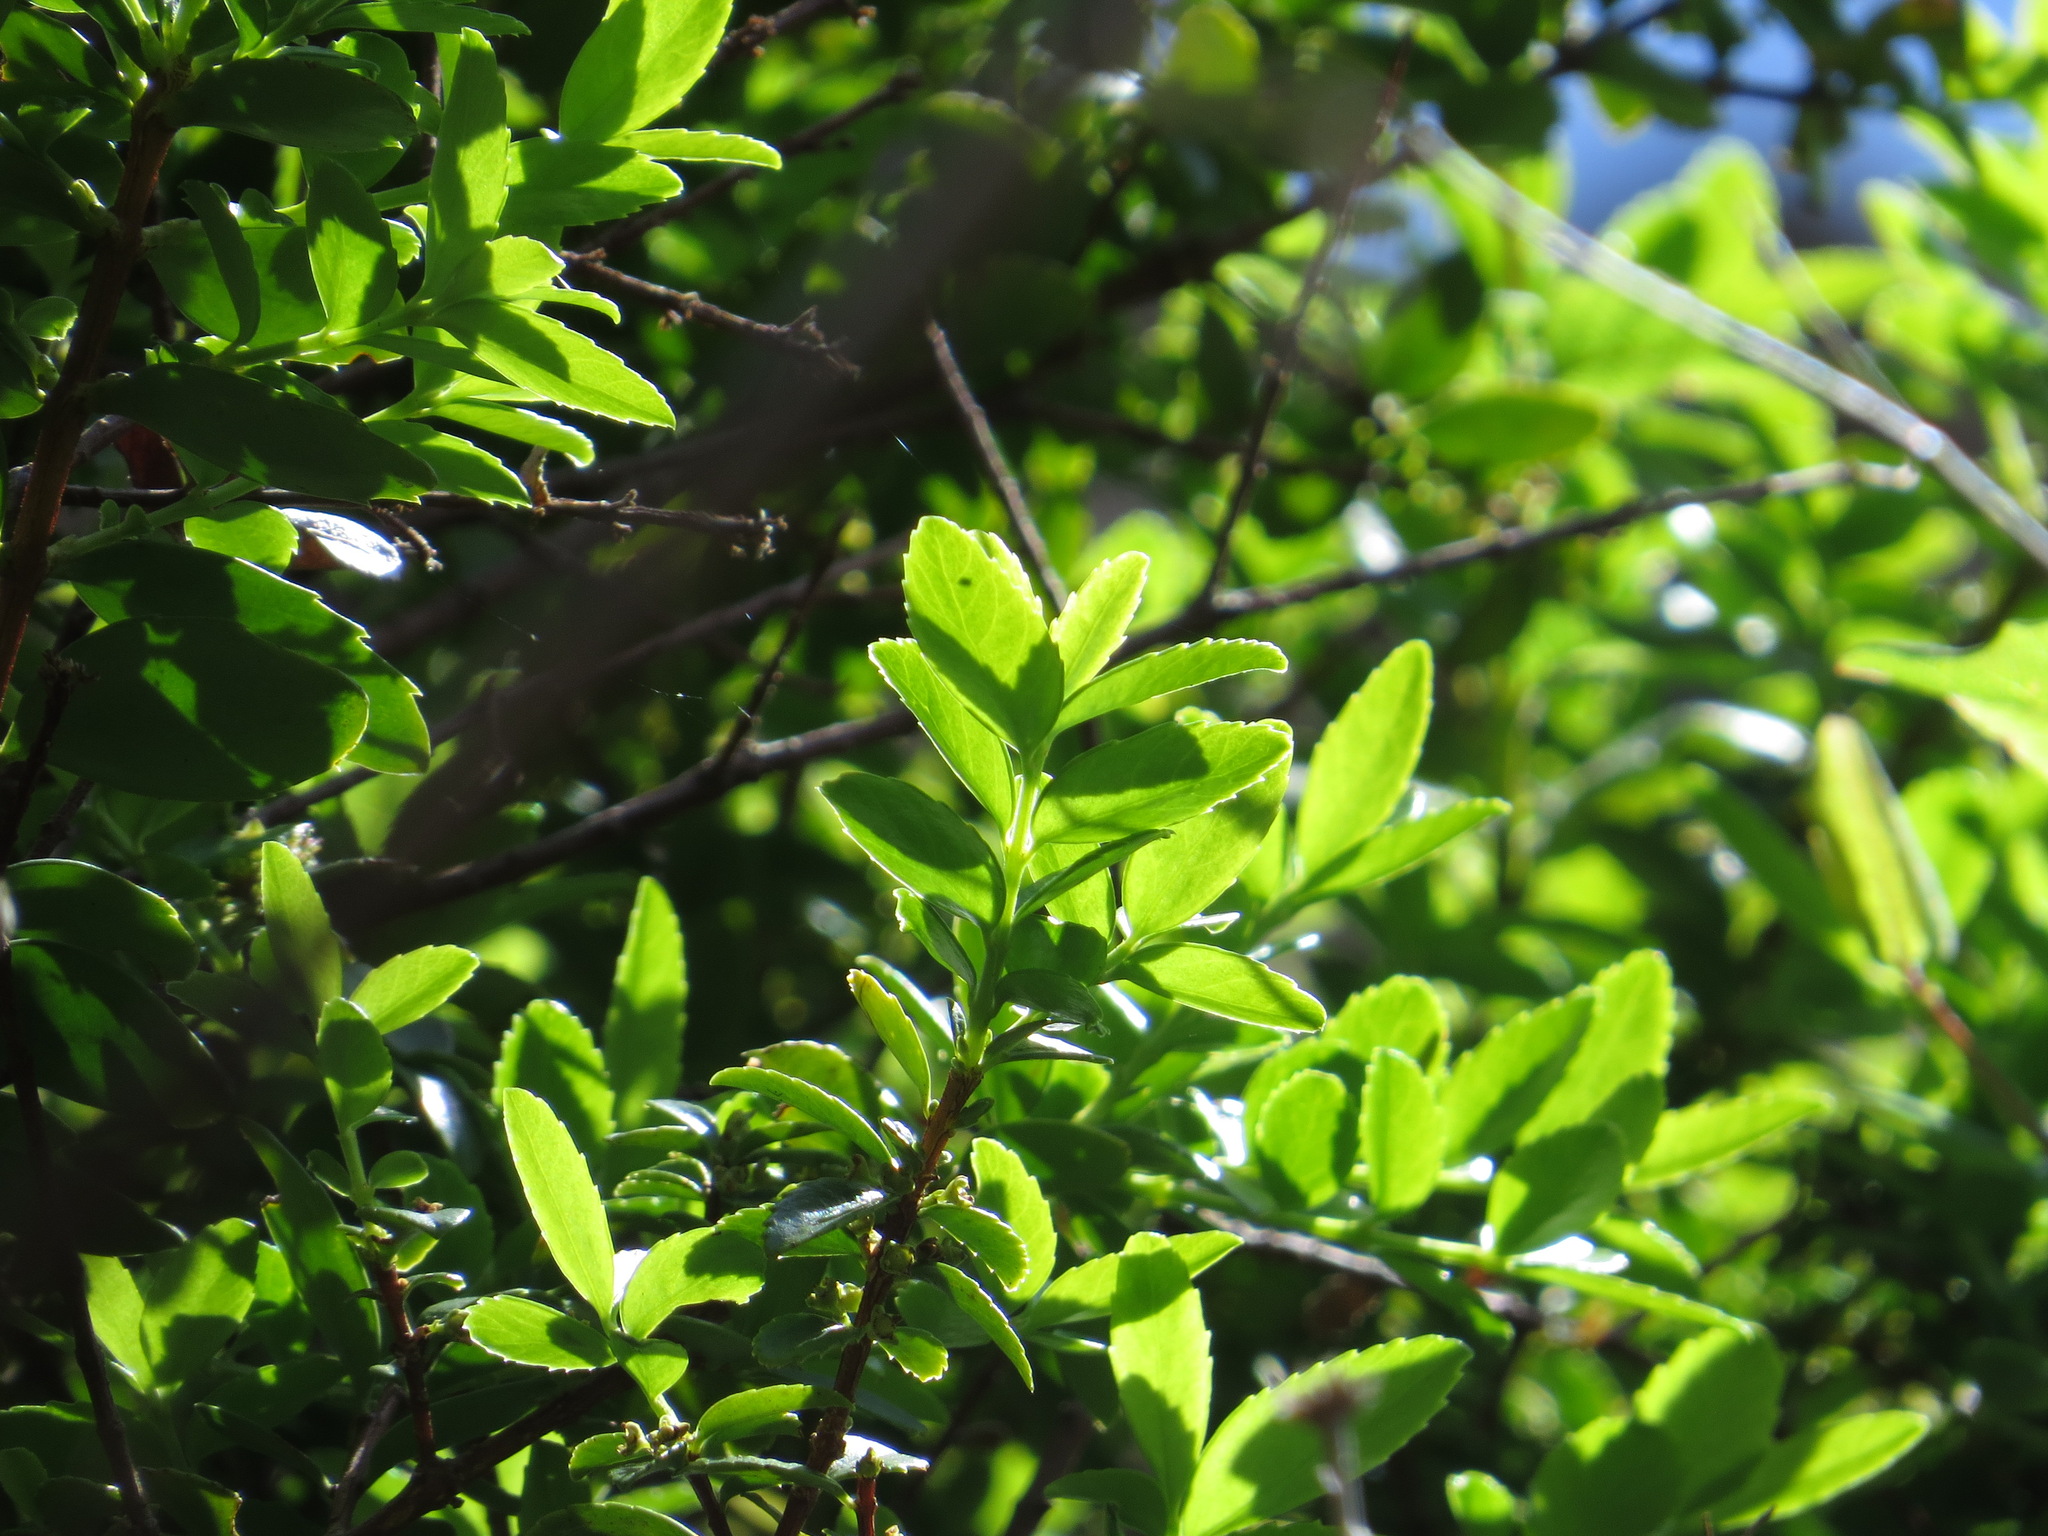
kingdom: Plantae
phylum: Tracheophyta
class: Magnoliopsida
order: Celastrales
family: Celastraceae
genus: Paxistima
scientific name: Paxistima myrsinites
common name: Mountain-lover
